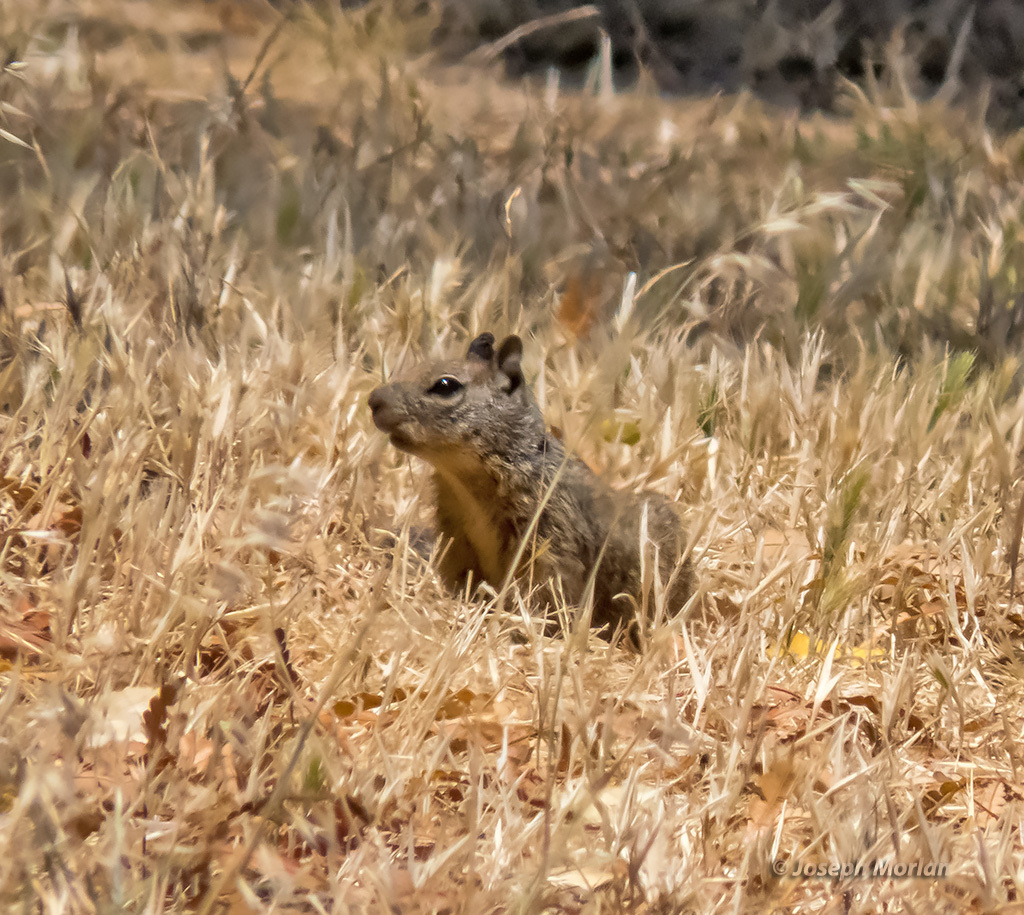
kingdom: Animalia
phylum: Chordata
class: Mammalia
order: Rodentia
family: Sciuridae
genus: Otospermophilus
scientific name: Otospermophilus beecheyi
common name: California ground squirrel
